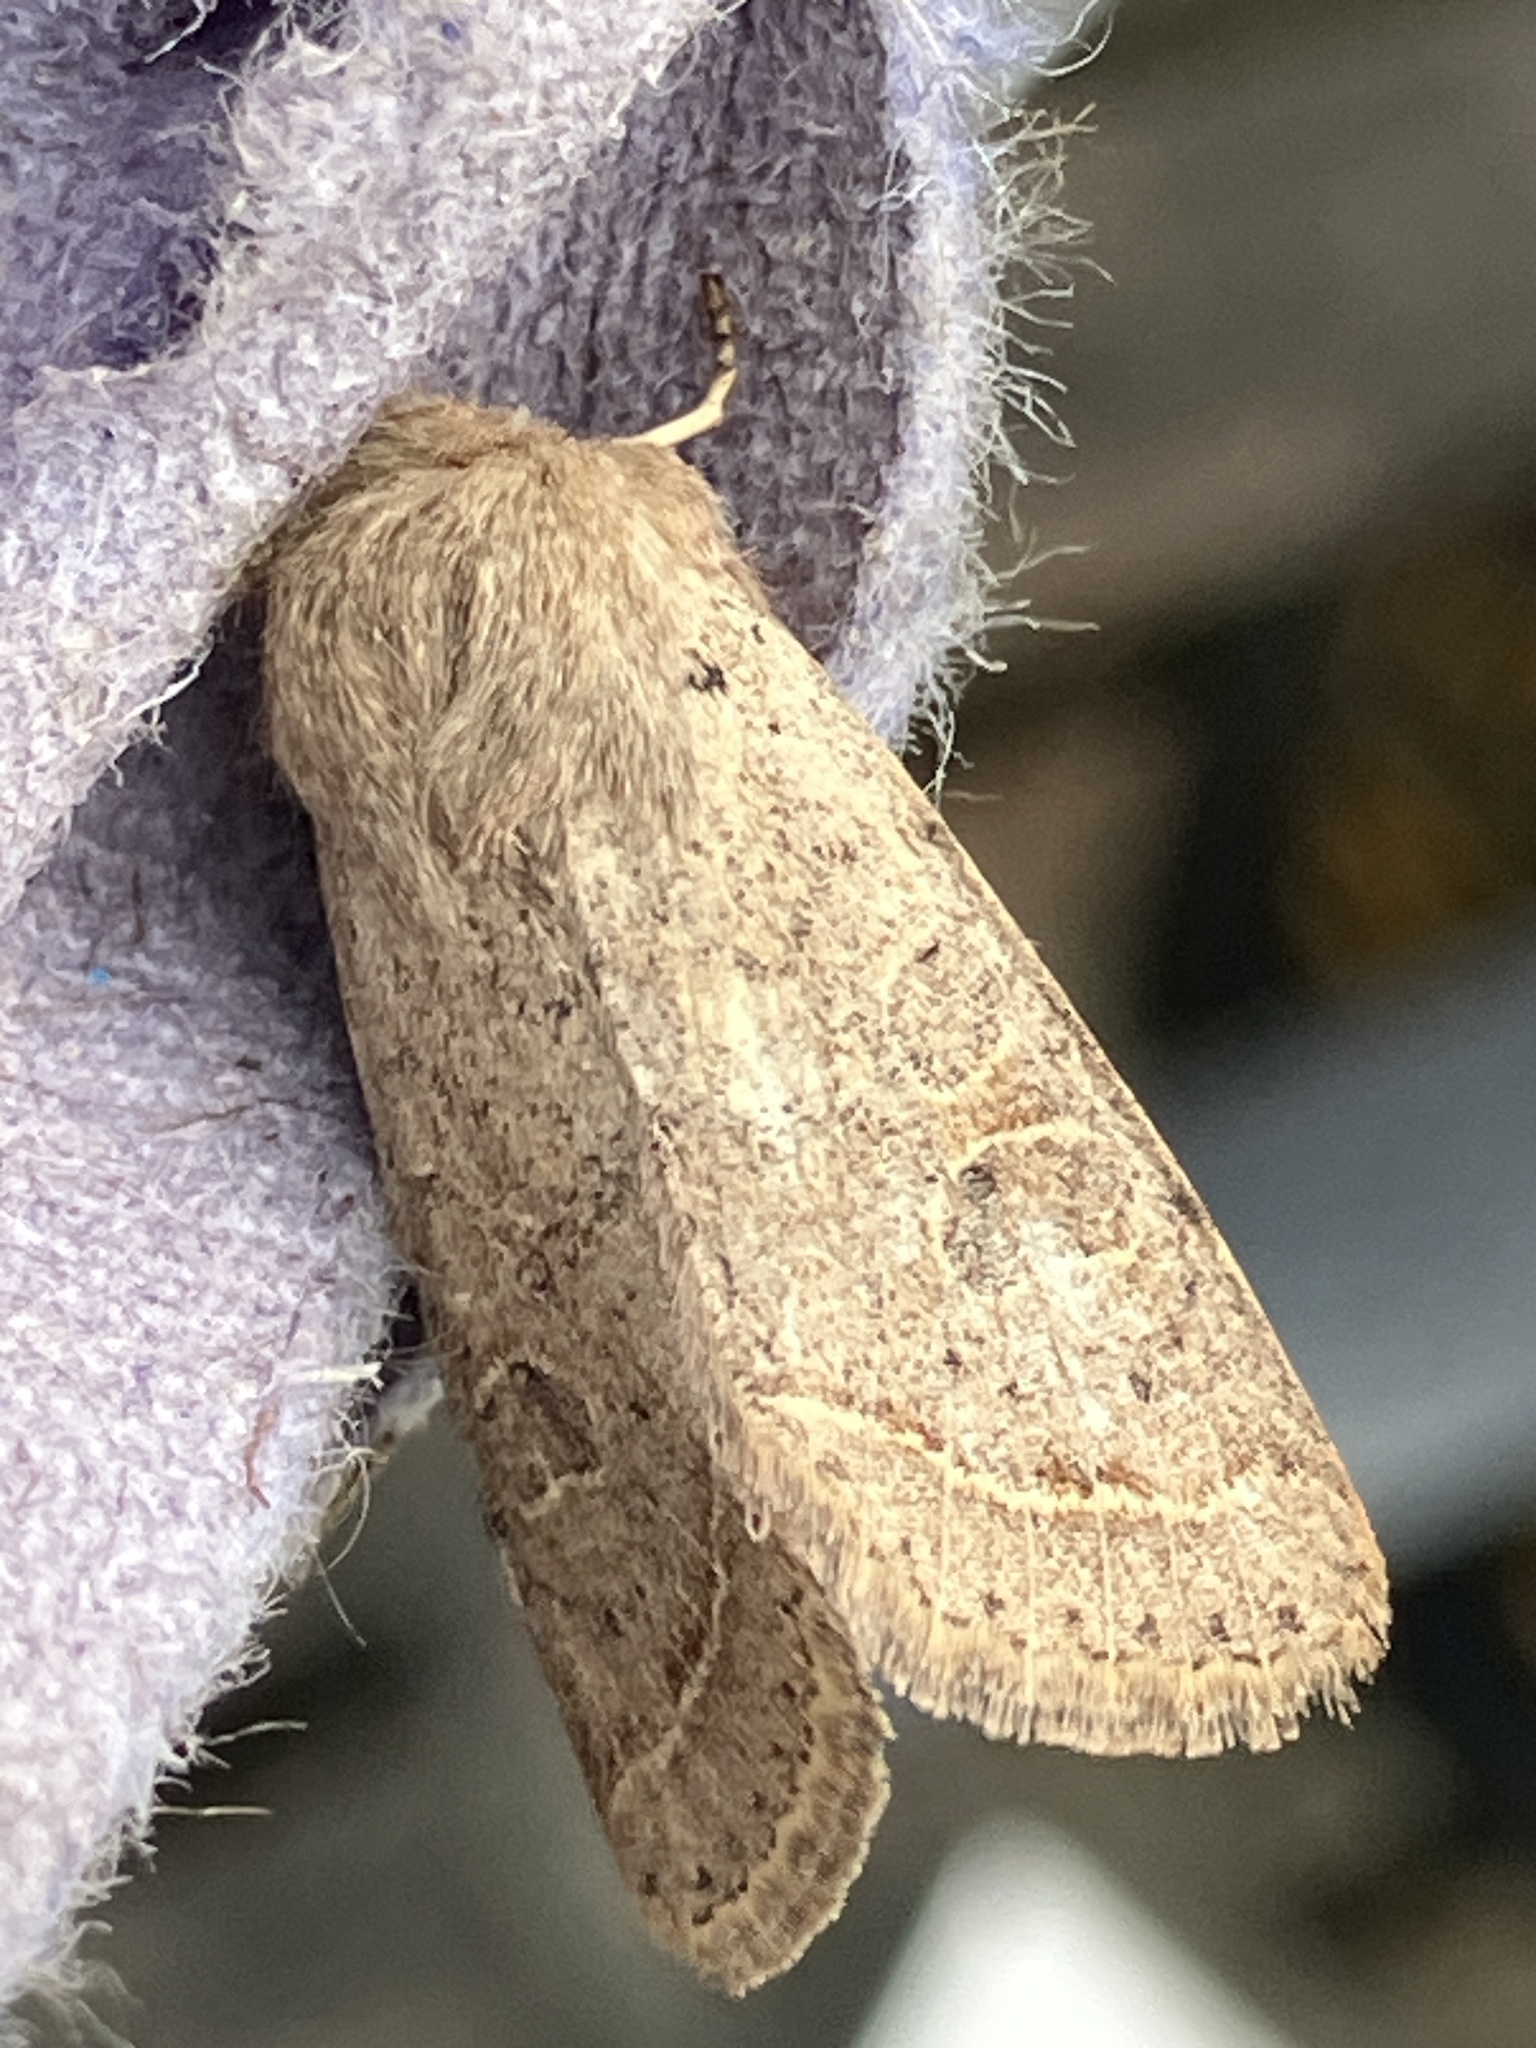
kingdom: Animalia
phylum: Arthropoda
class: Insecta
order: Lepidoptera
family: Noctuidae
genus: Orthosia
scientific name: Orthosia cerasi
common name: Common quaker
